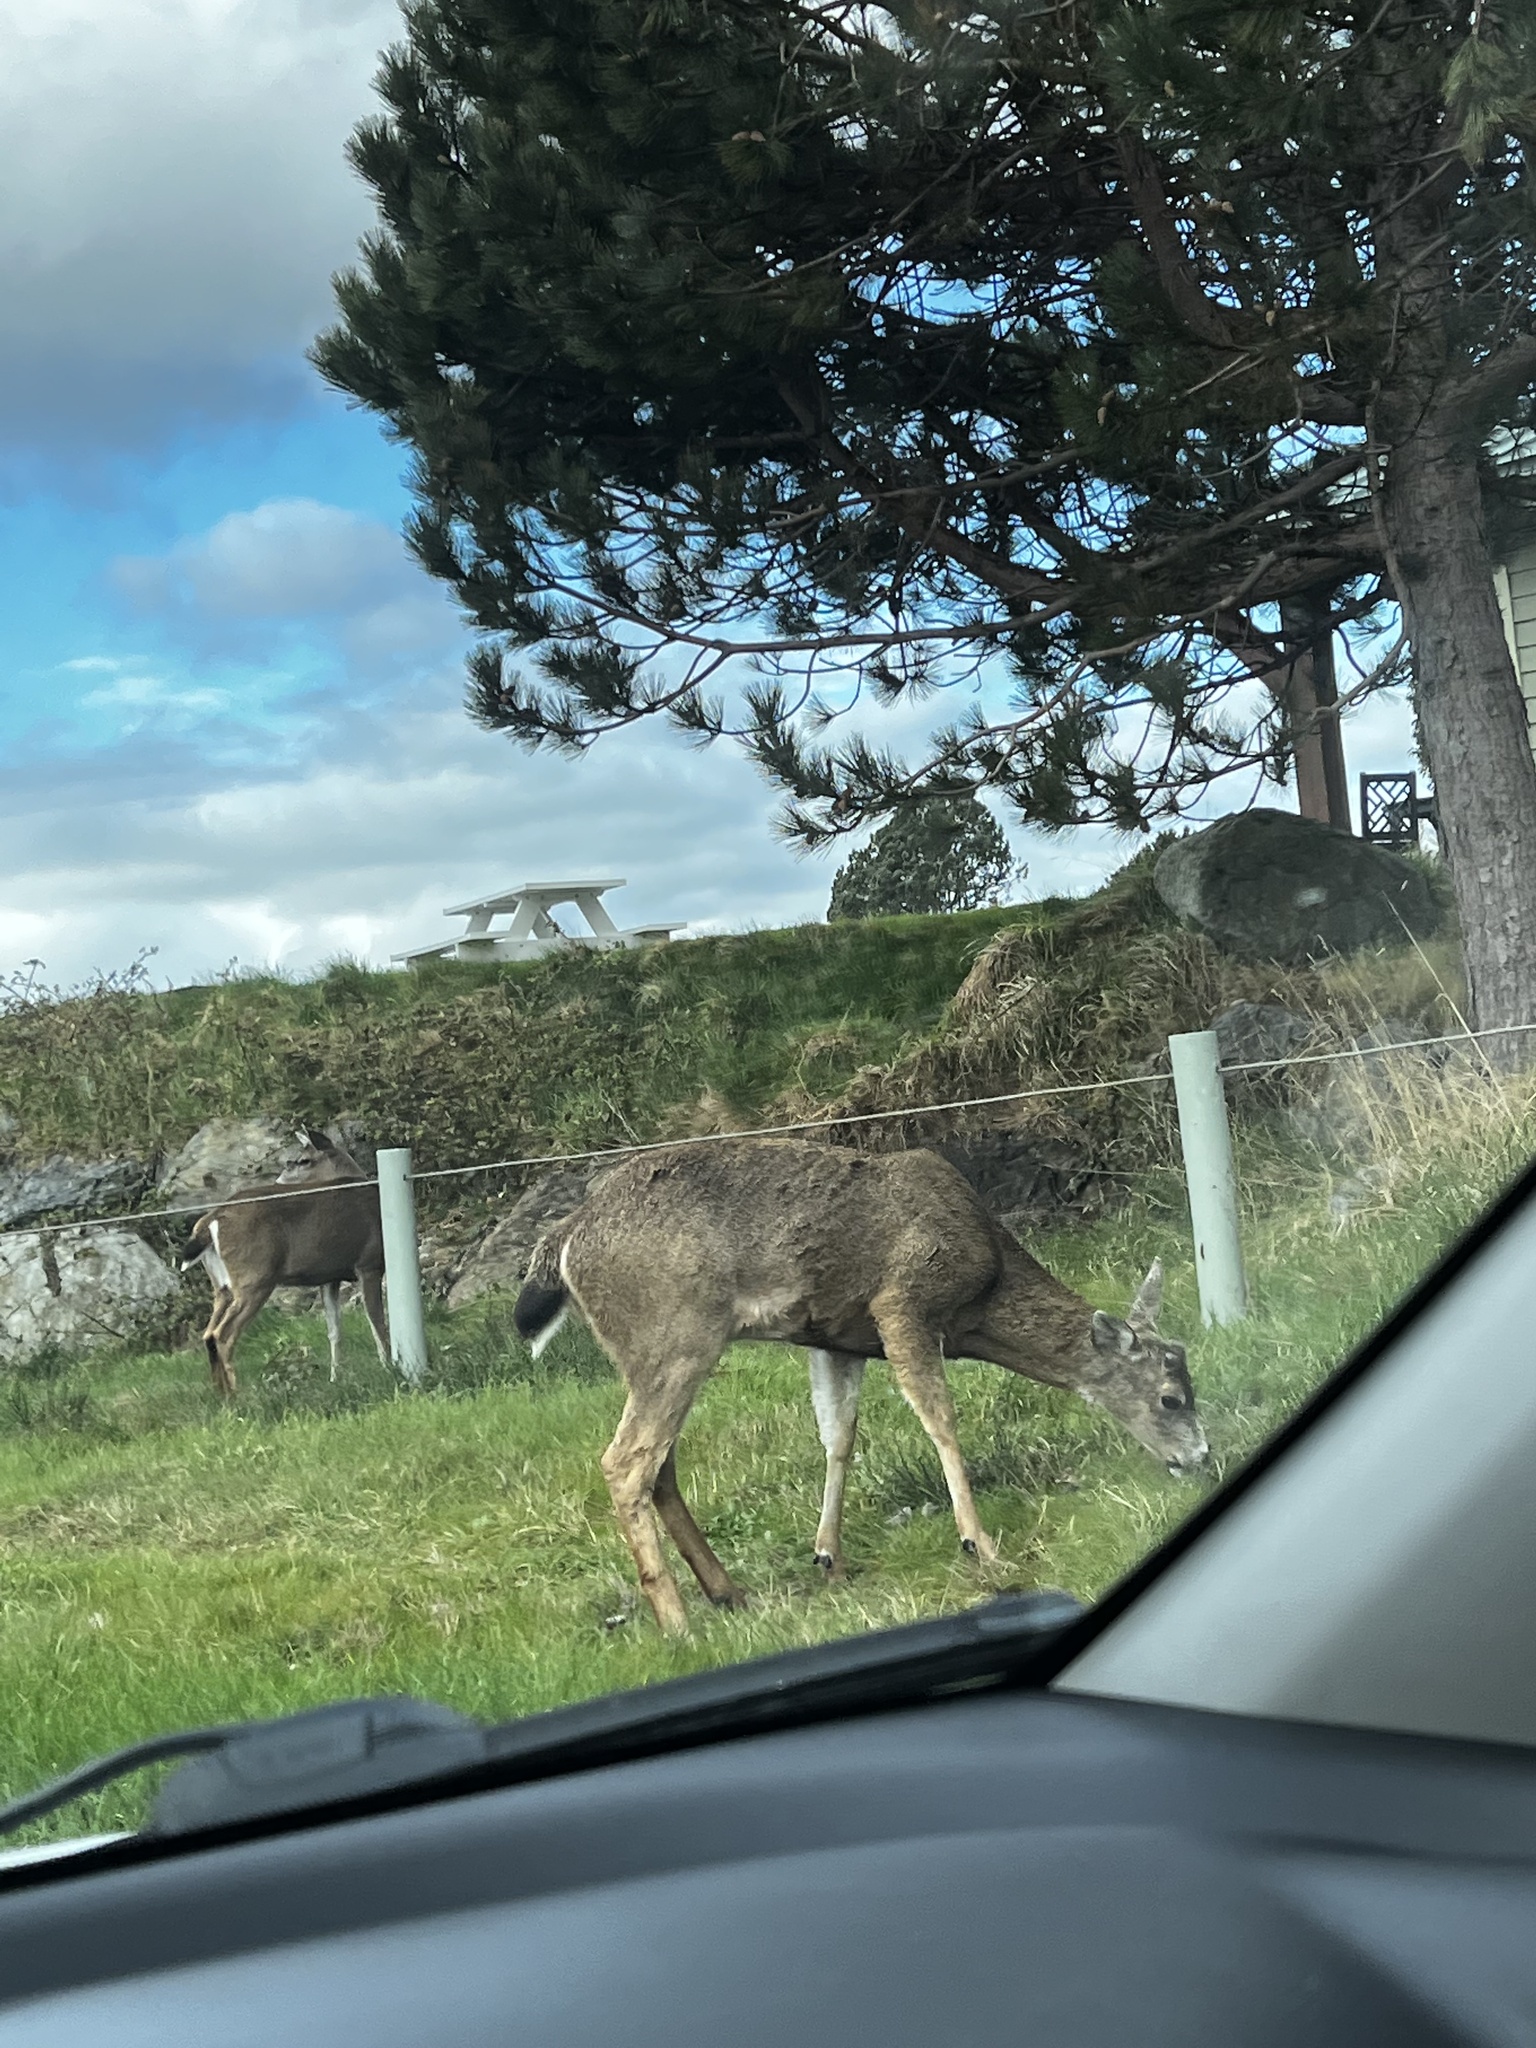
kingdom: Animalia
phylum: Chordata
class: Mammalia
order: Artiodactyla
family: Cervidae
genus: Odocoileus
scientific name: Odocoileus hemionus
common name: Mule deer
